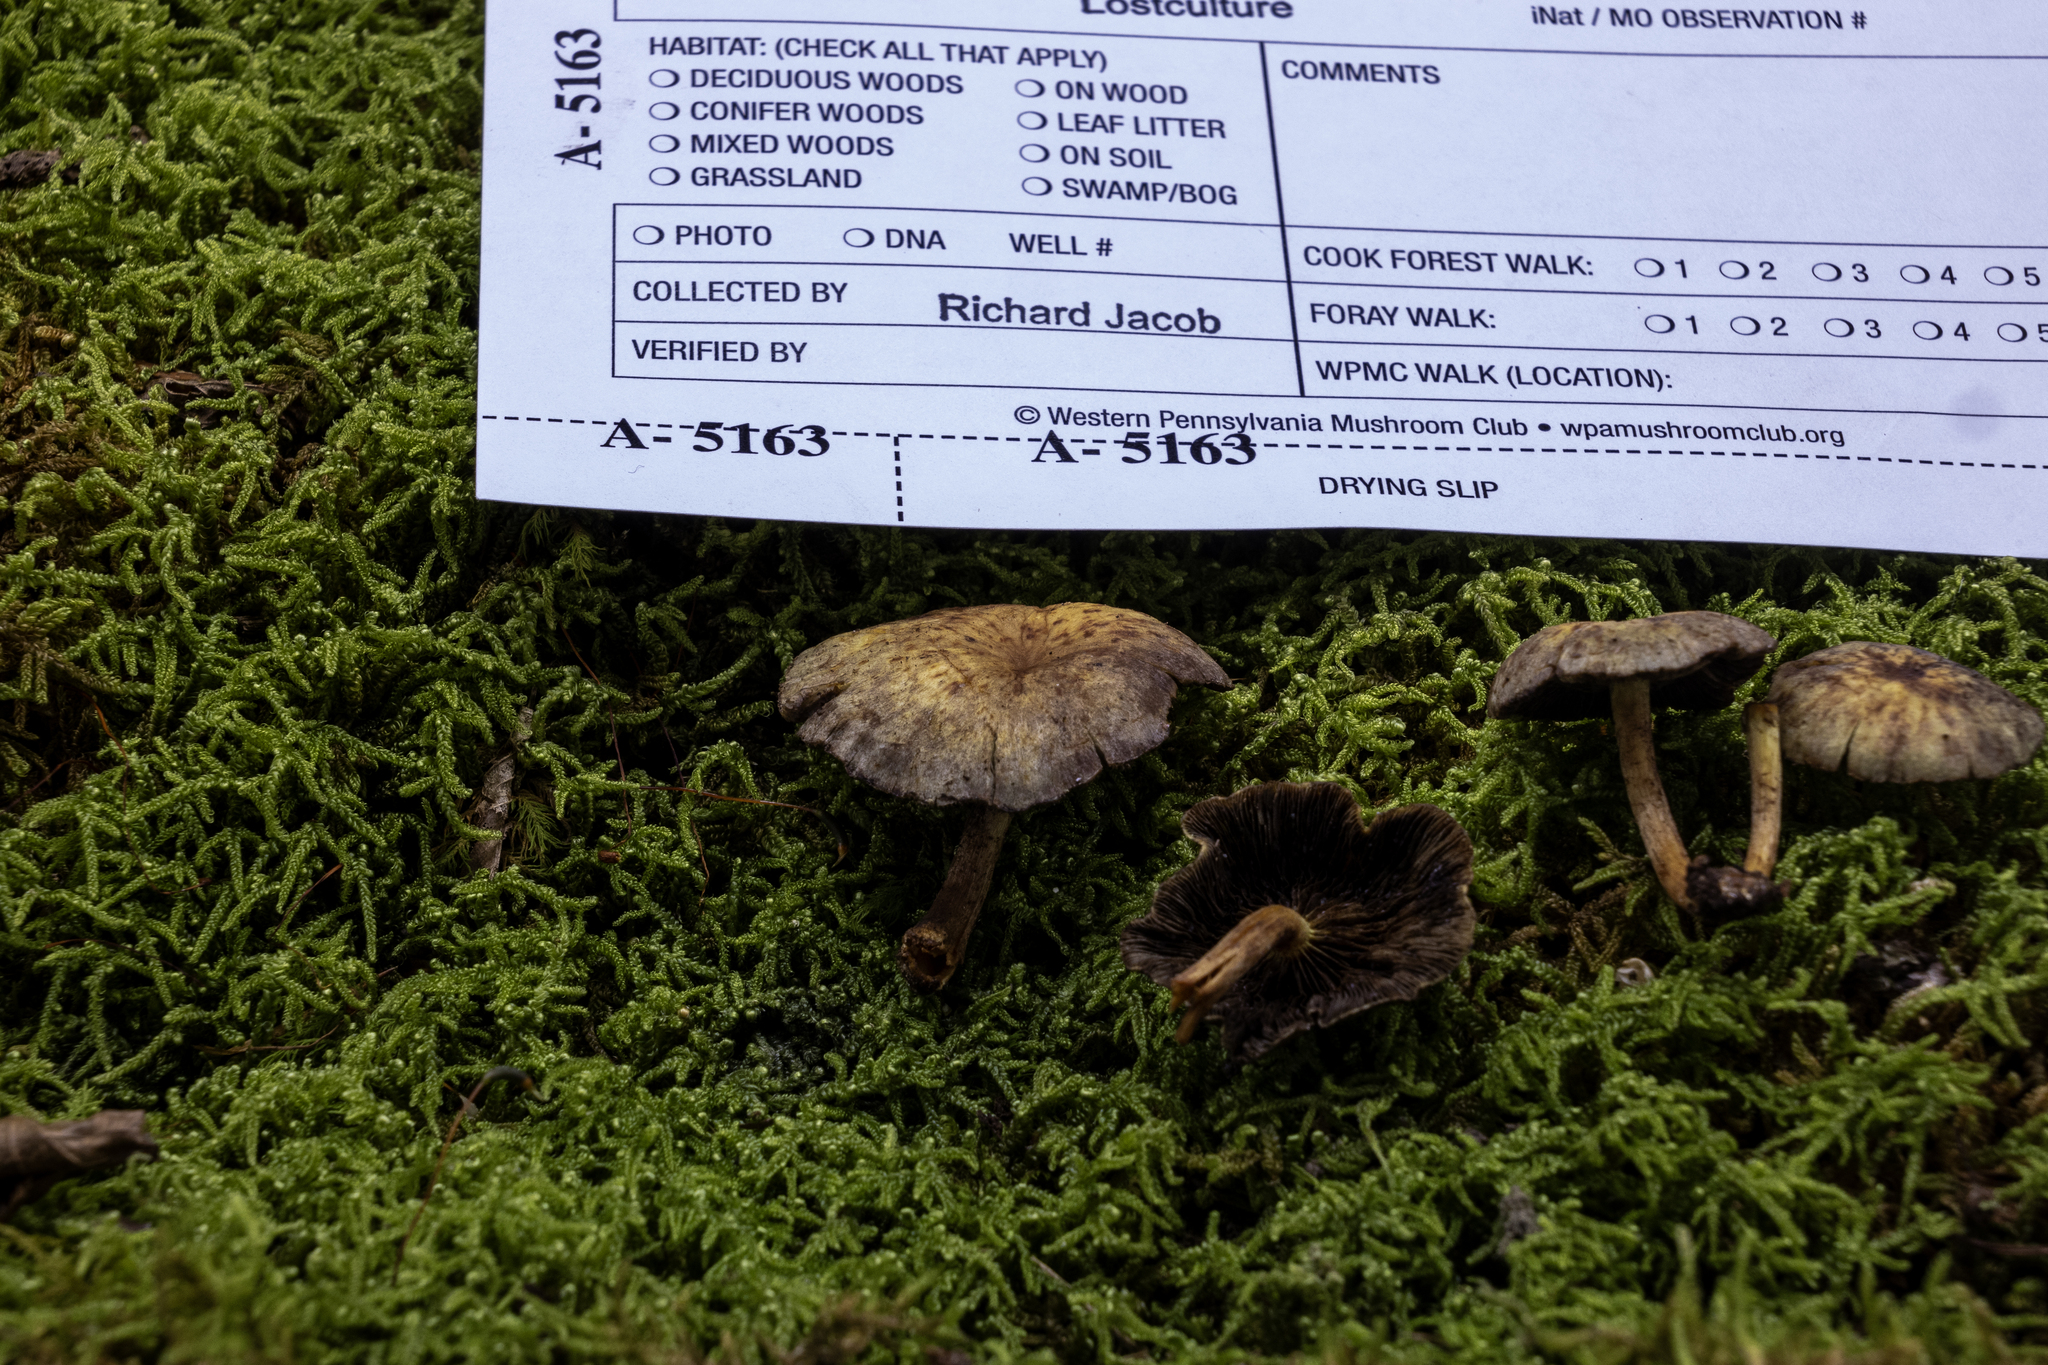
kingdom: Fungi
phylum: Basidiomycota
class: Agaricomycetes
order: Agaricales
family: Strophariaceae
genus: Hypholoma
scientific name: Hypholoma fasciculare
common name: Sulphur tuft
